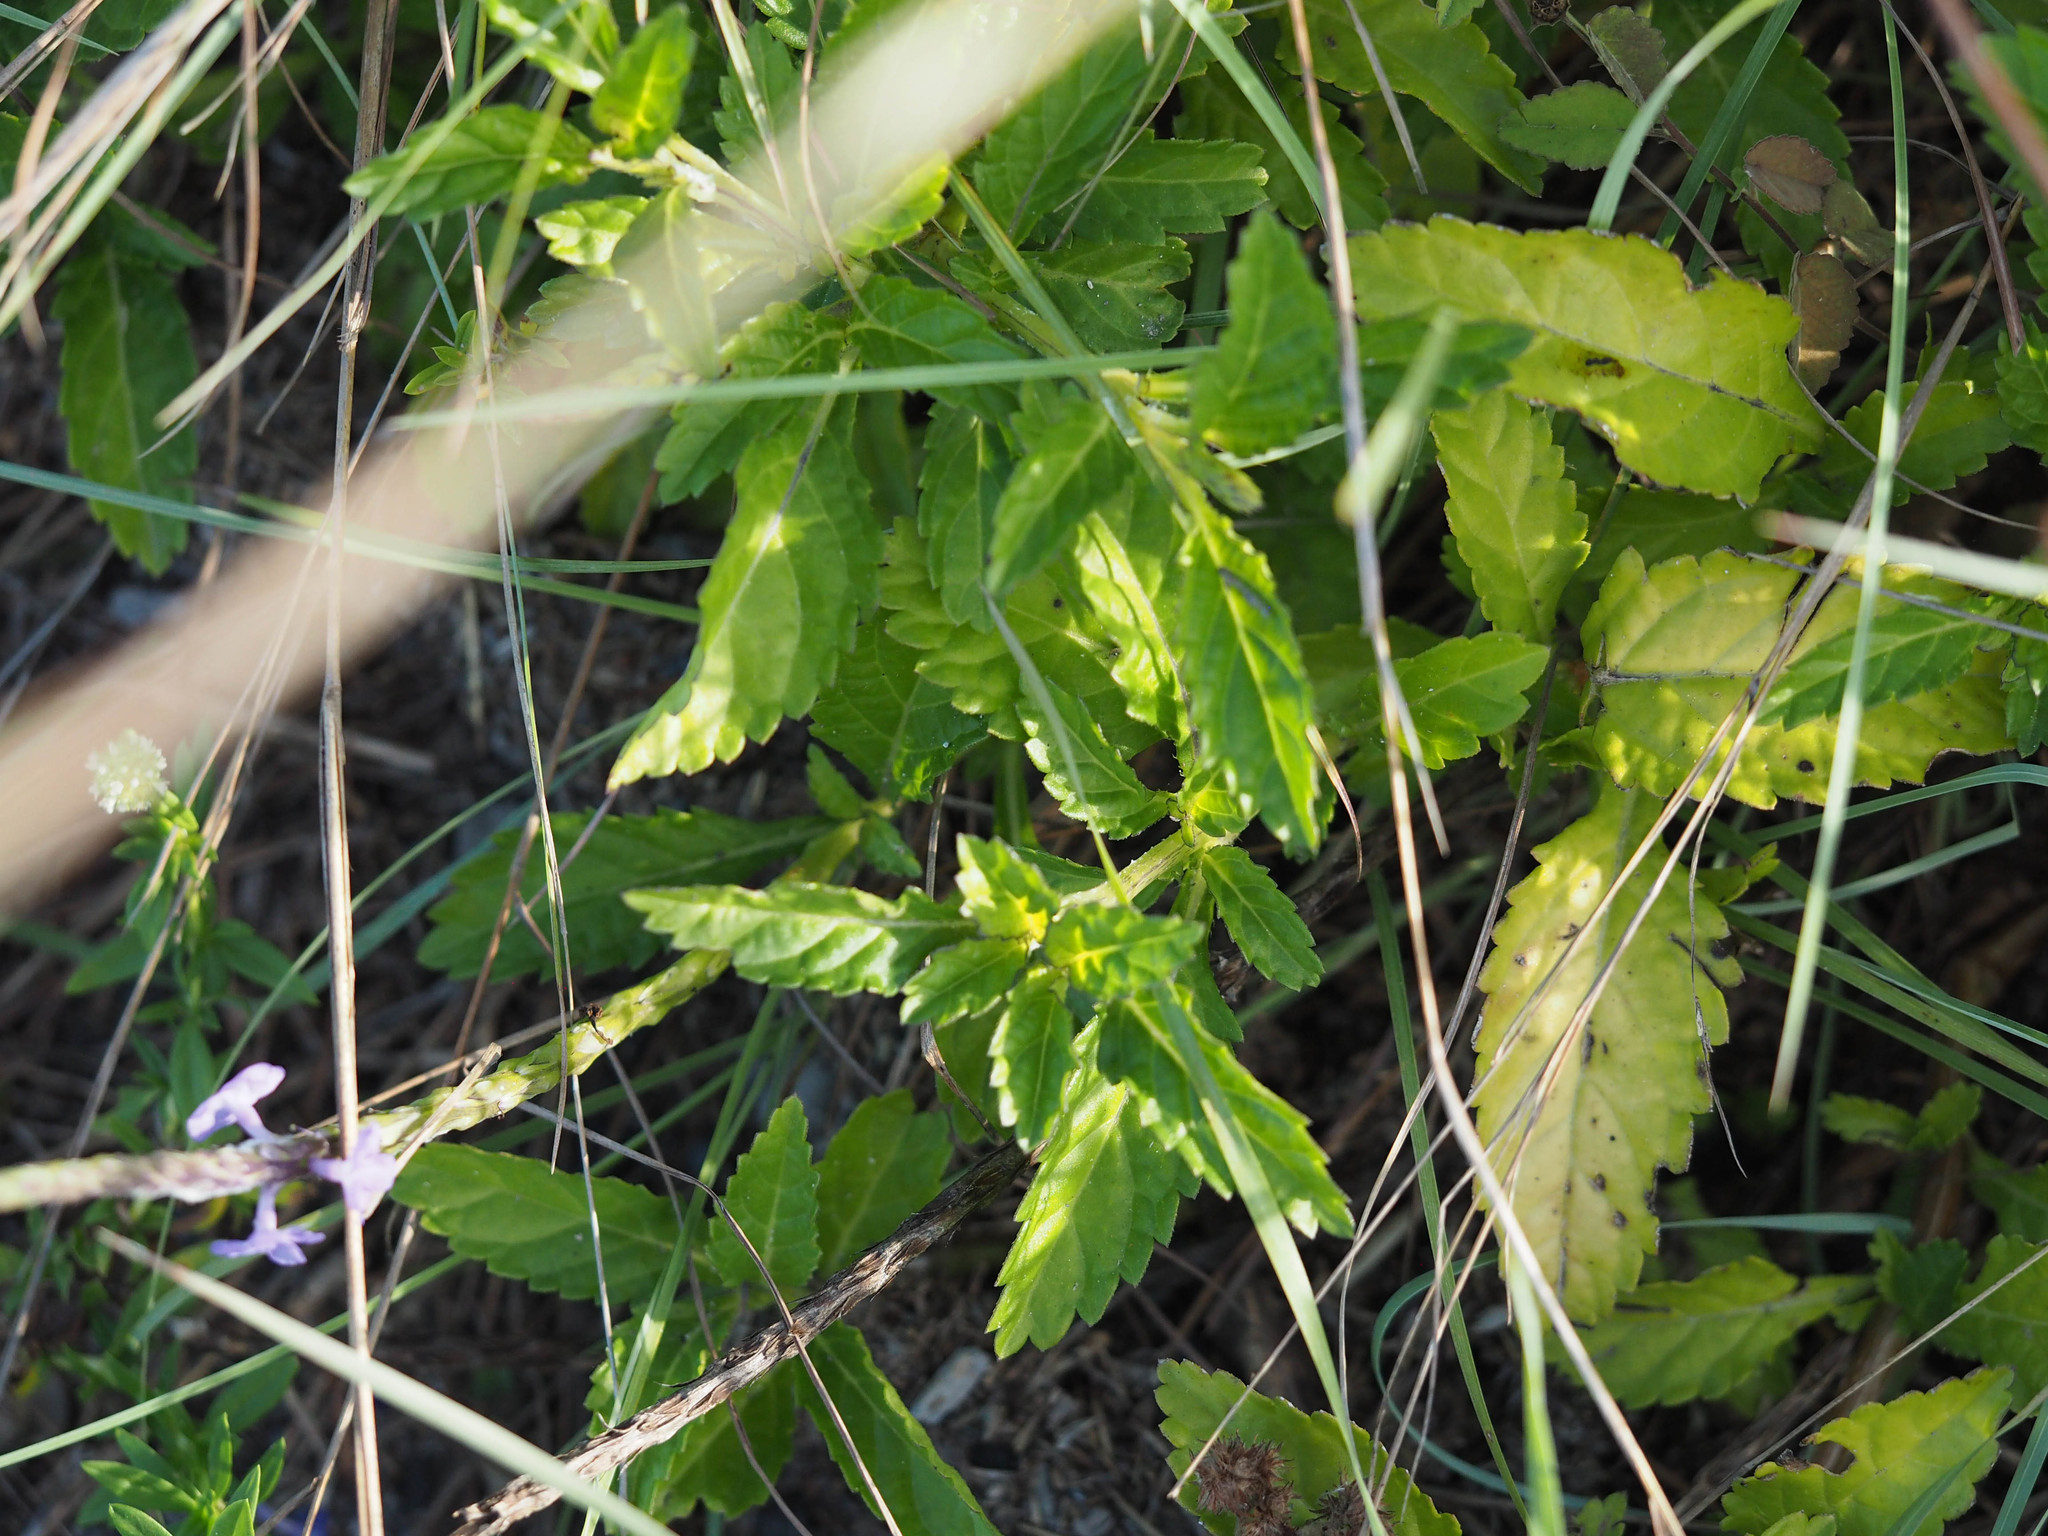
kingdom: Plantae
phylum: Tracheophyta
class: Magnoliopsida
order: Lamiales
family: Verbenaceae
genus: Stachytarpheta
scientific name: Stachytarpheta jamaicensis
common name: Light-blue snakeweed
